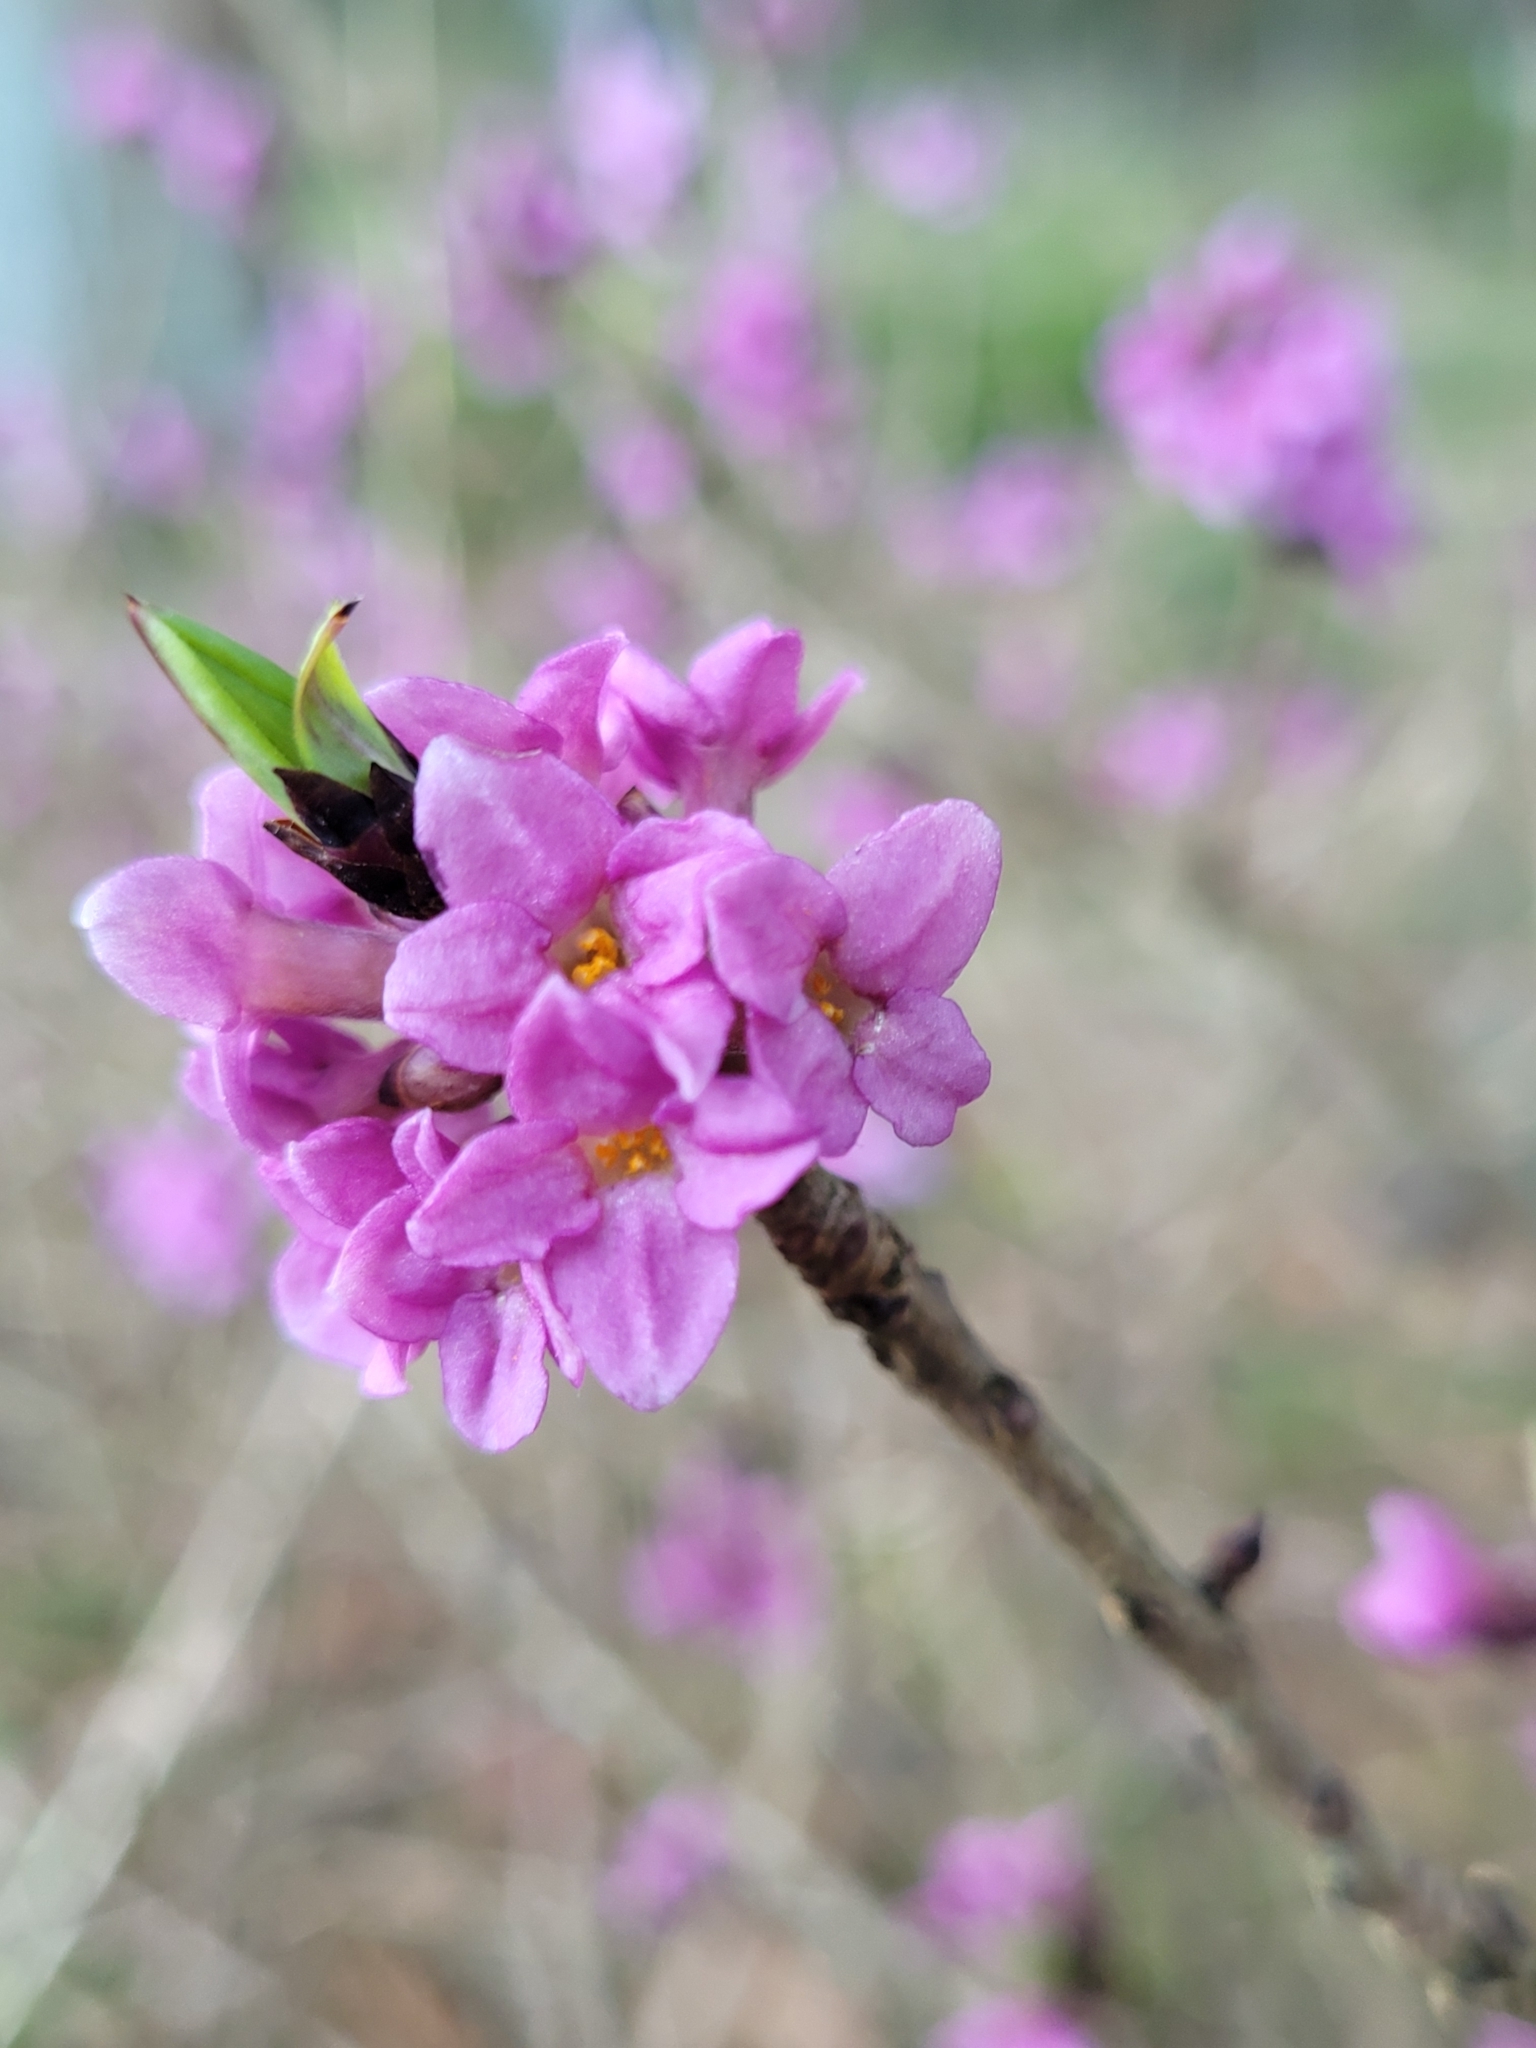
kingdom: Plantae
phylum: Tracheophyta
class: Magnoliopsida
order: Malvales
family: Thymelaeaceae
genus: Daphne
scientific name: Daphne mezereum
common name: Mezereon
